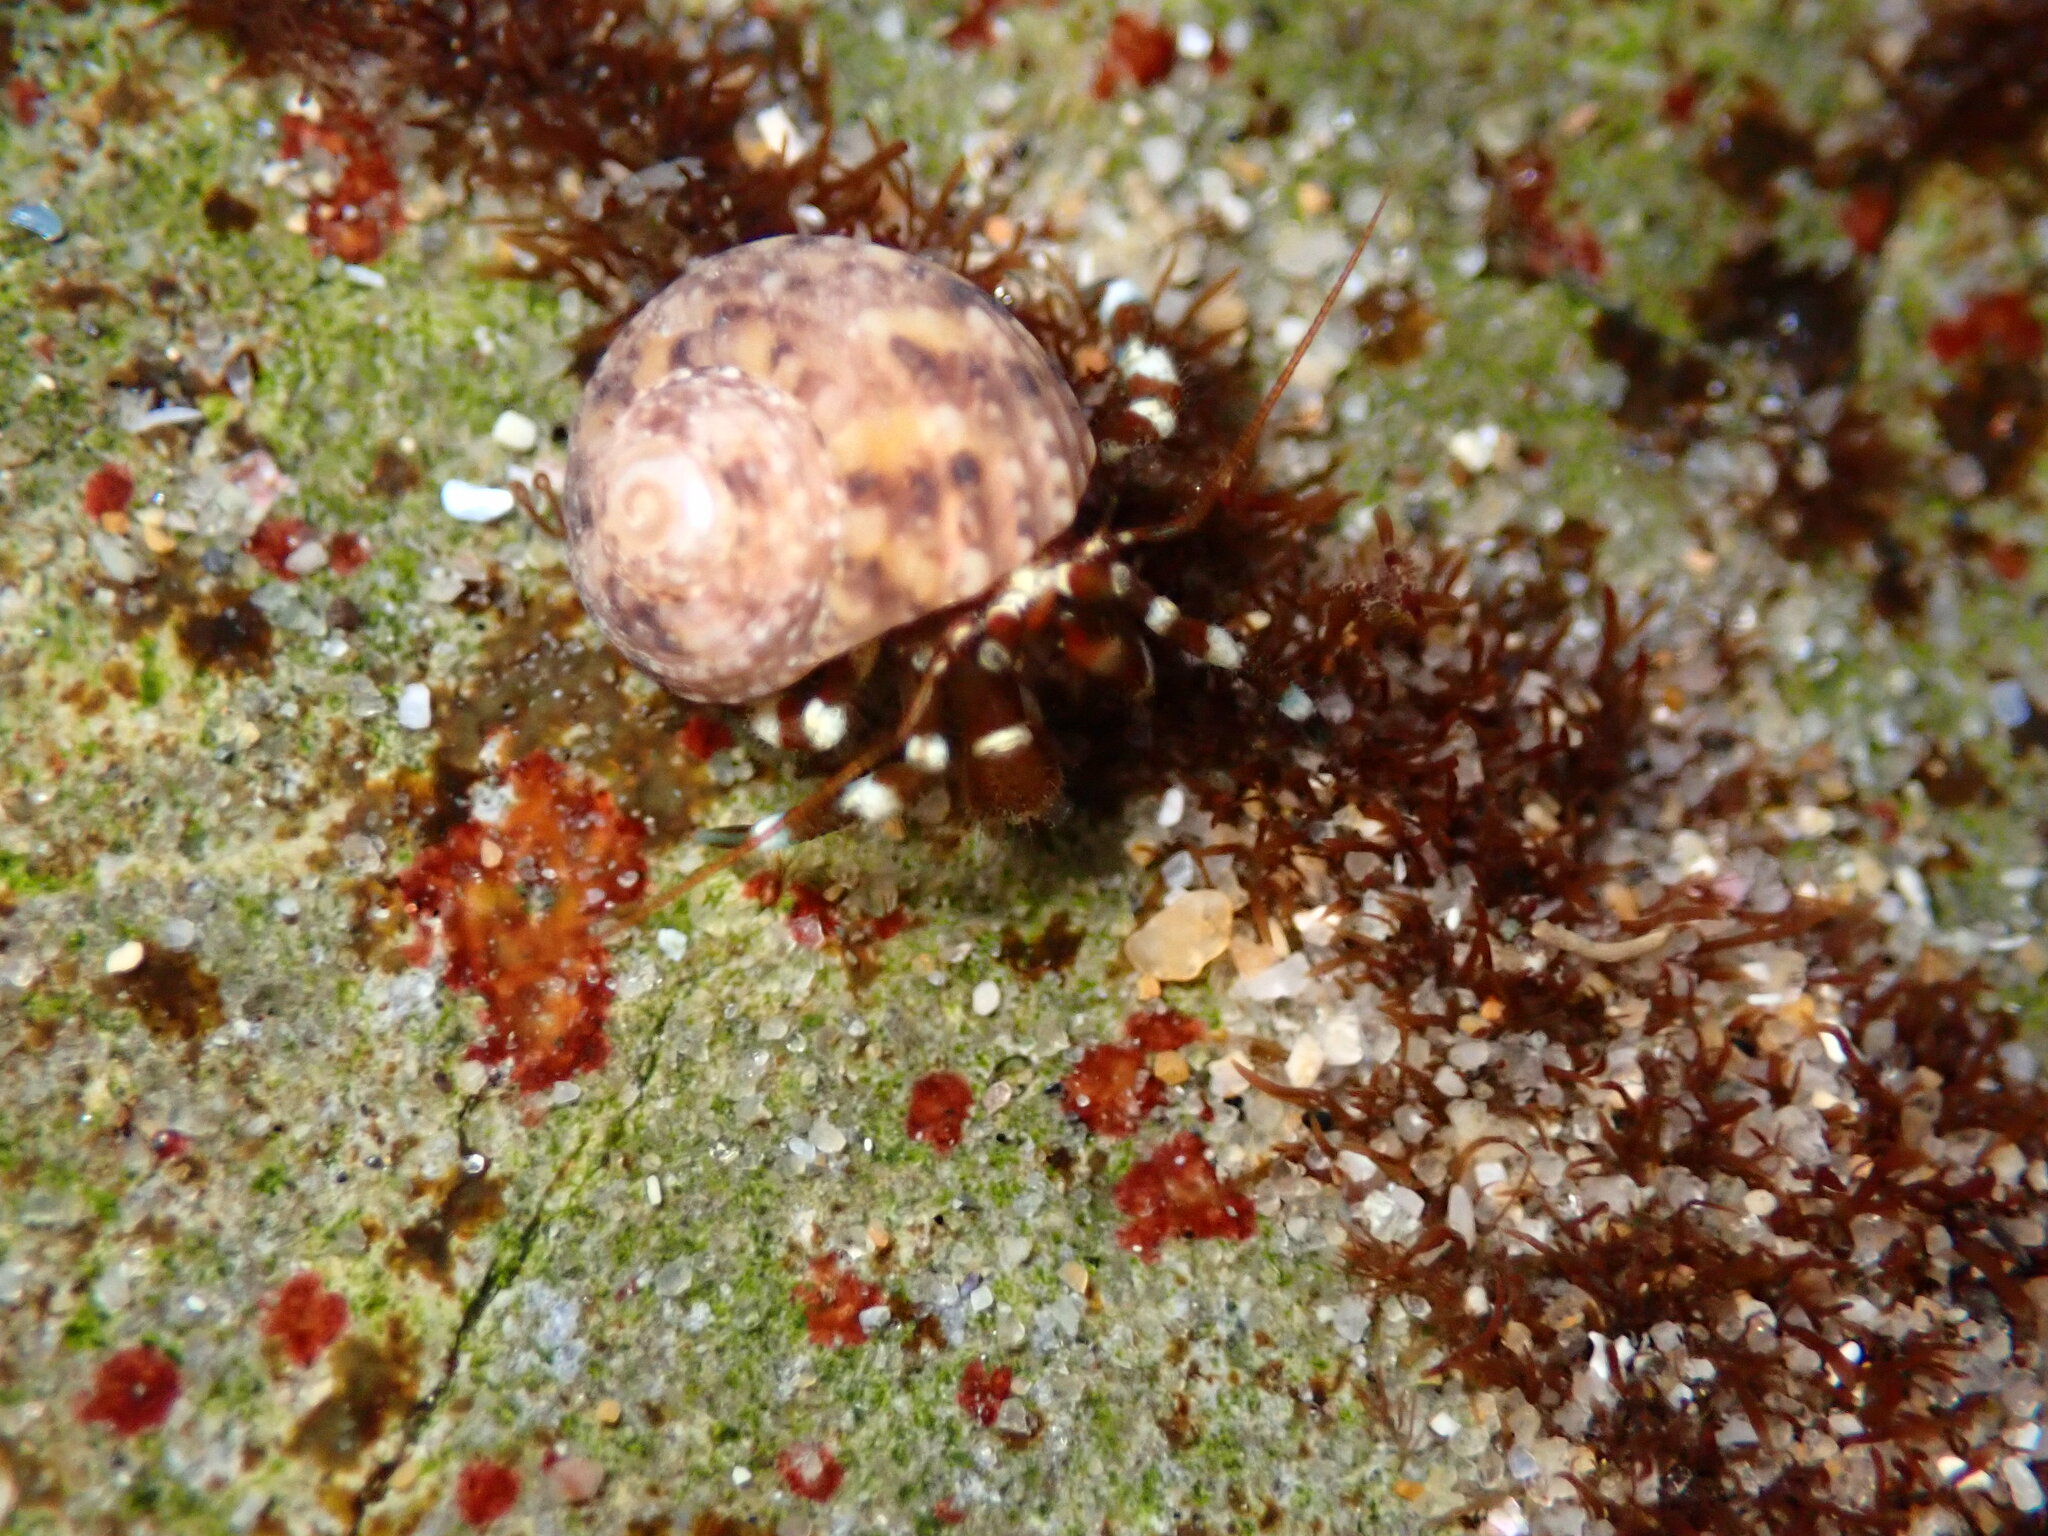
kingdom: Animalia
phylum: Arthropoda
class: Malacostraca
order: Decapoda
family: Paguridae
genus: Pagurus
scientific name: Pagurus samuelis
